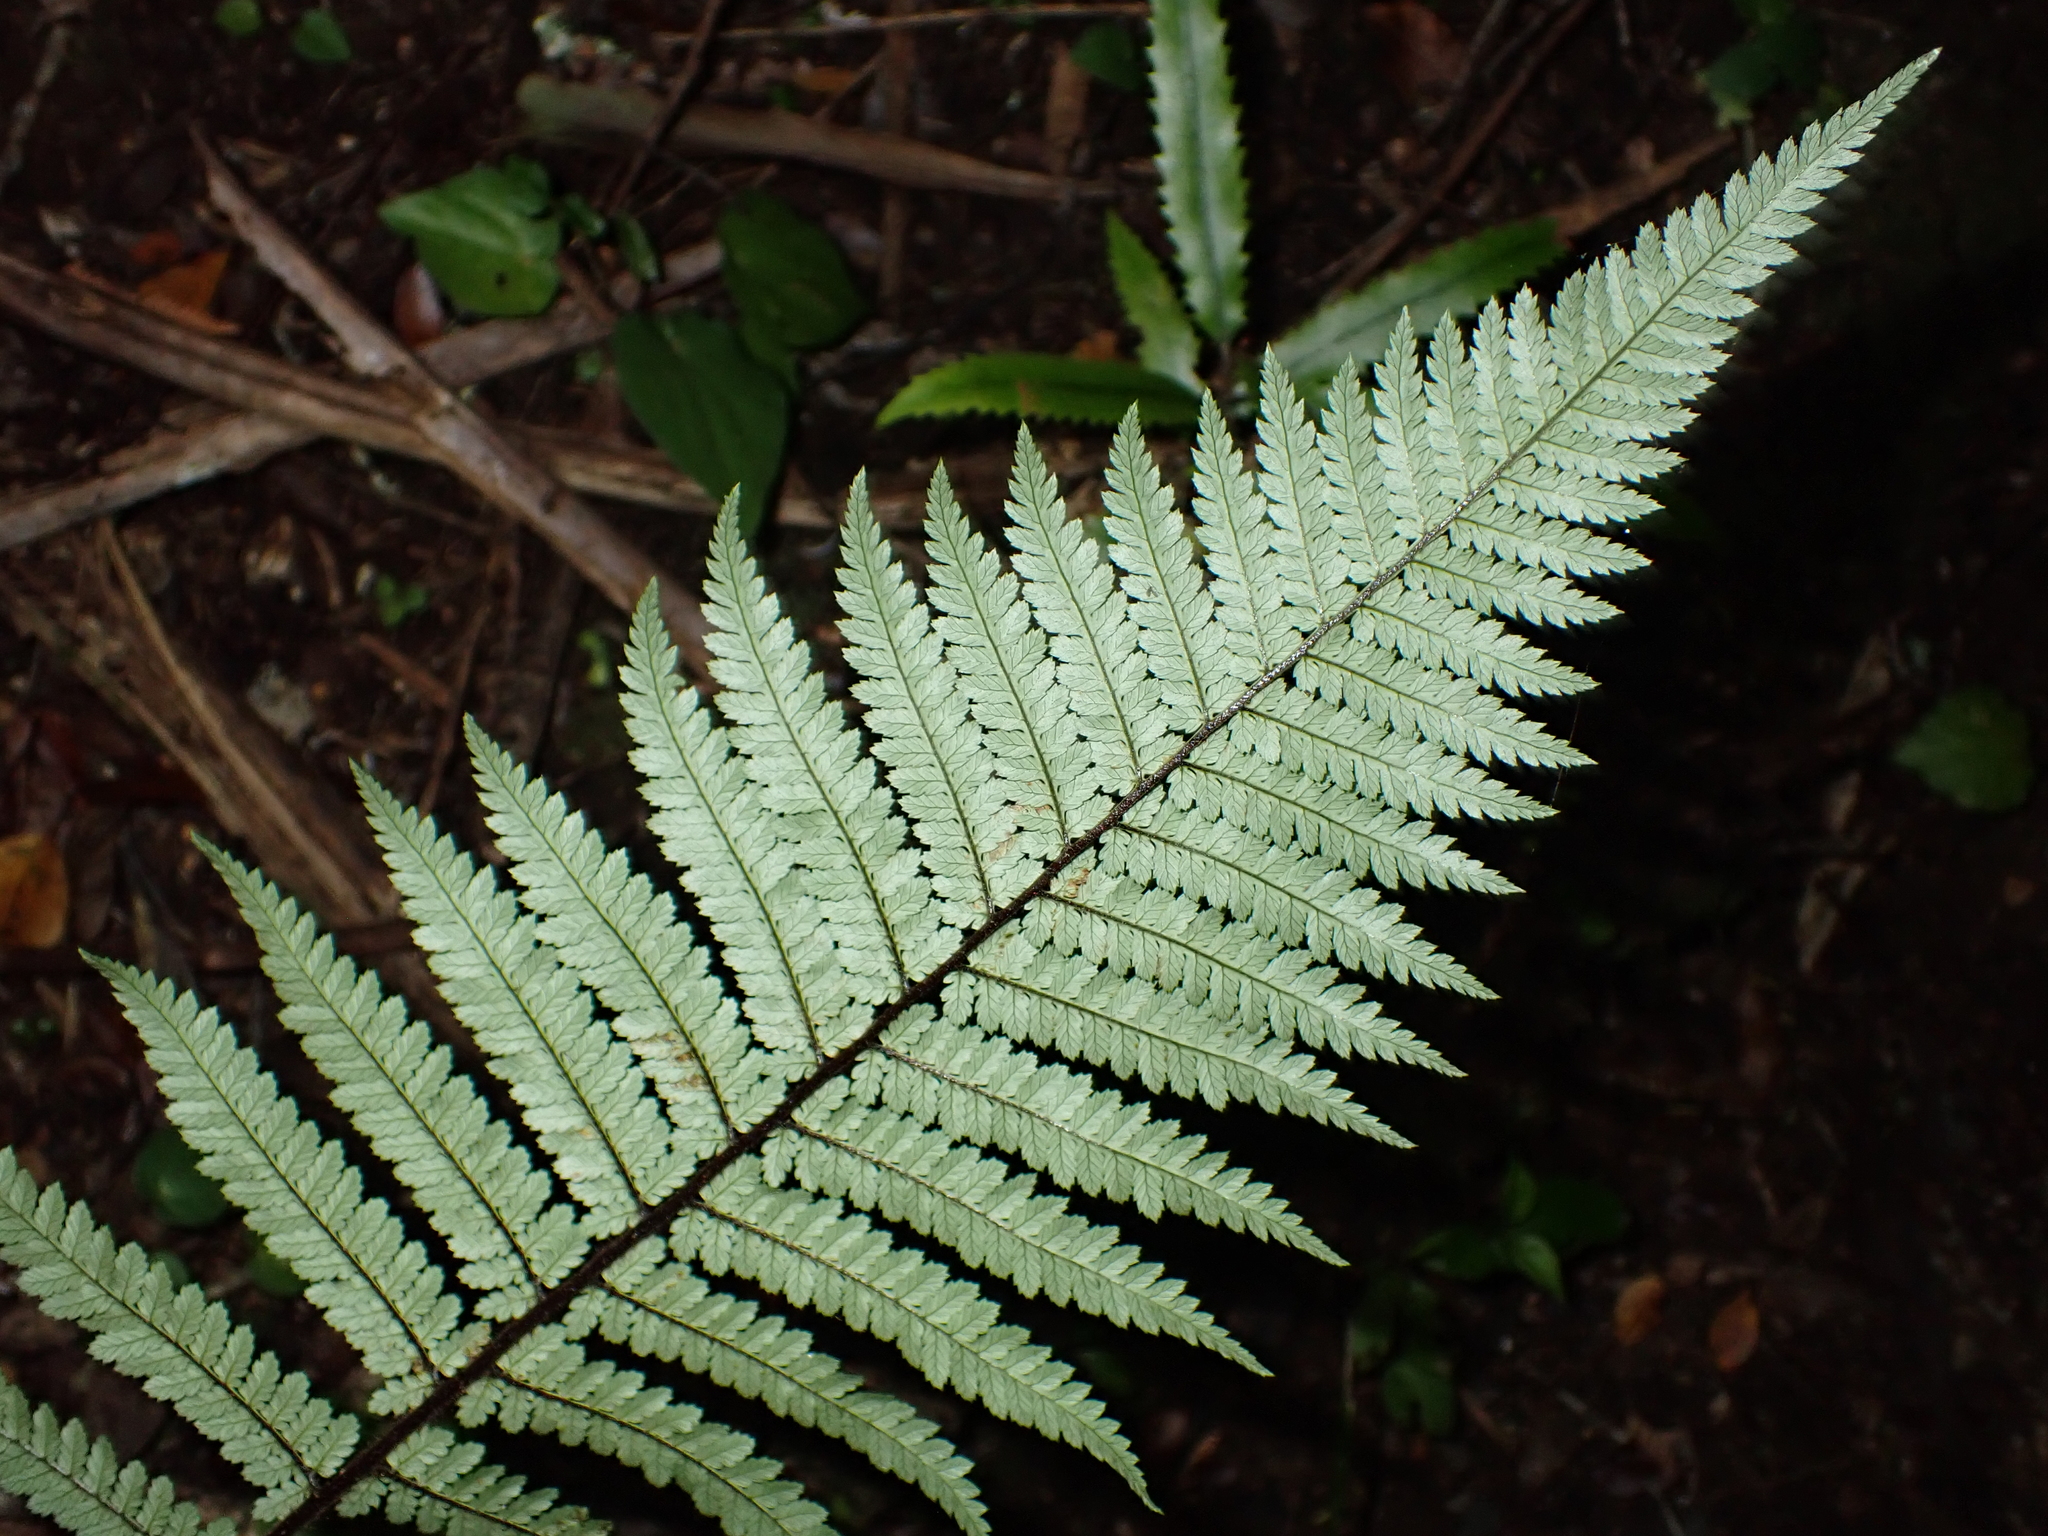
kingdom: Plantae
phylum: Tracheophyta
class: Polypodiopsida
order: Cyatheales
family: Dicksoniaceae
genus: Dicksonia
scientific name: Dicksonia squarrosa
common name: Hard treefern
